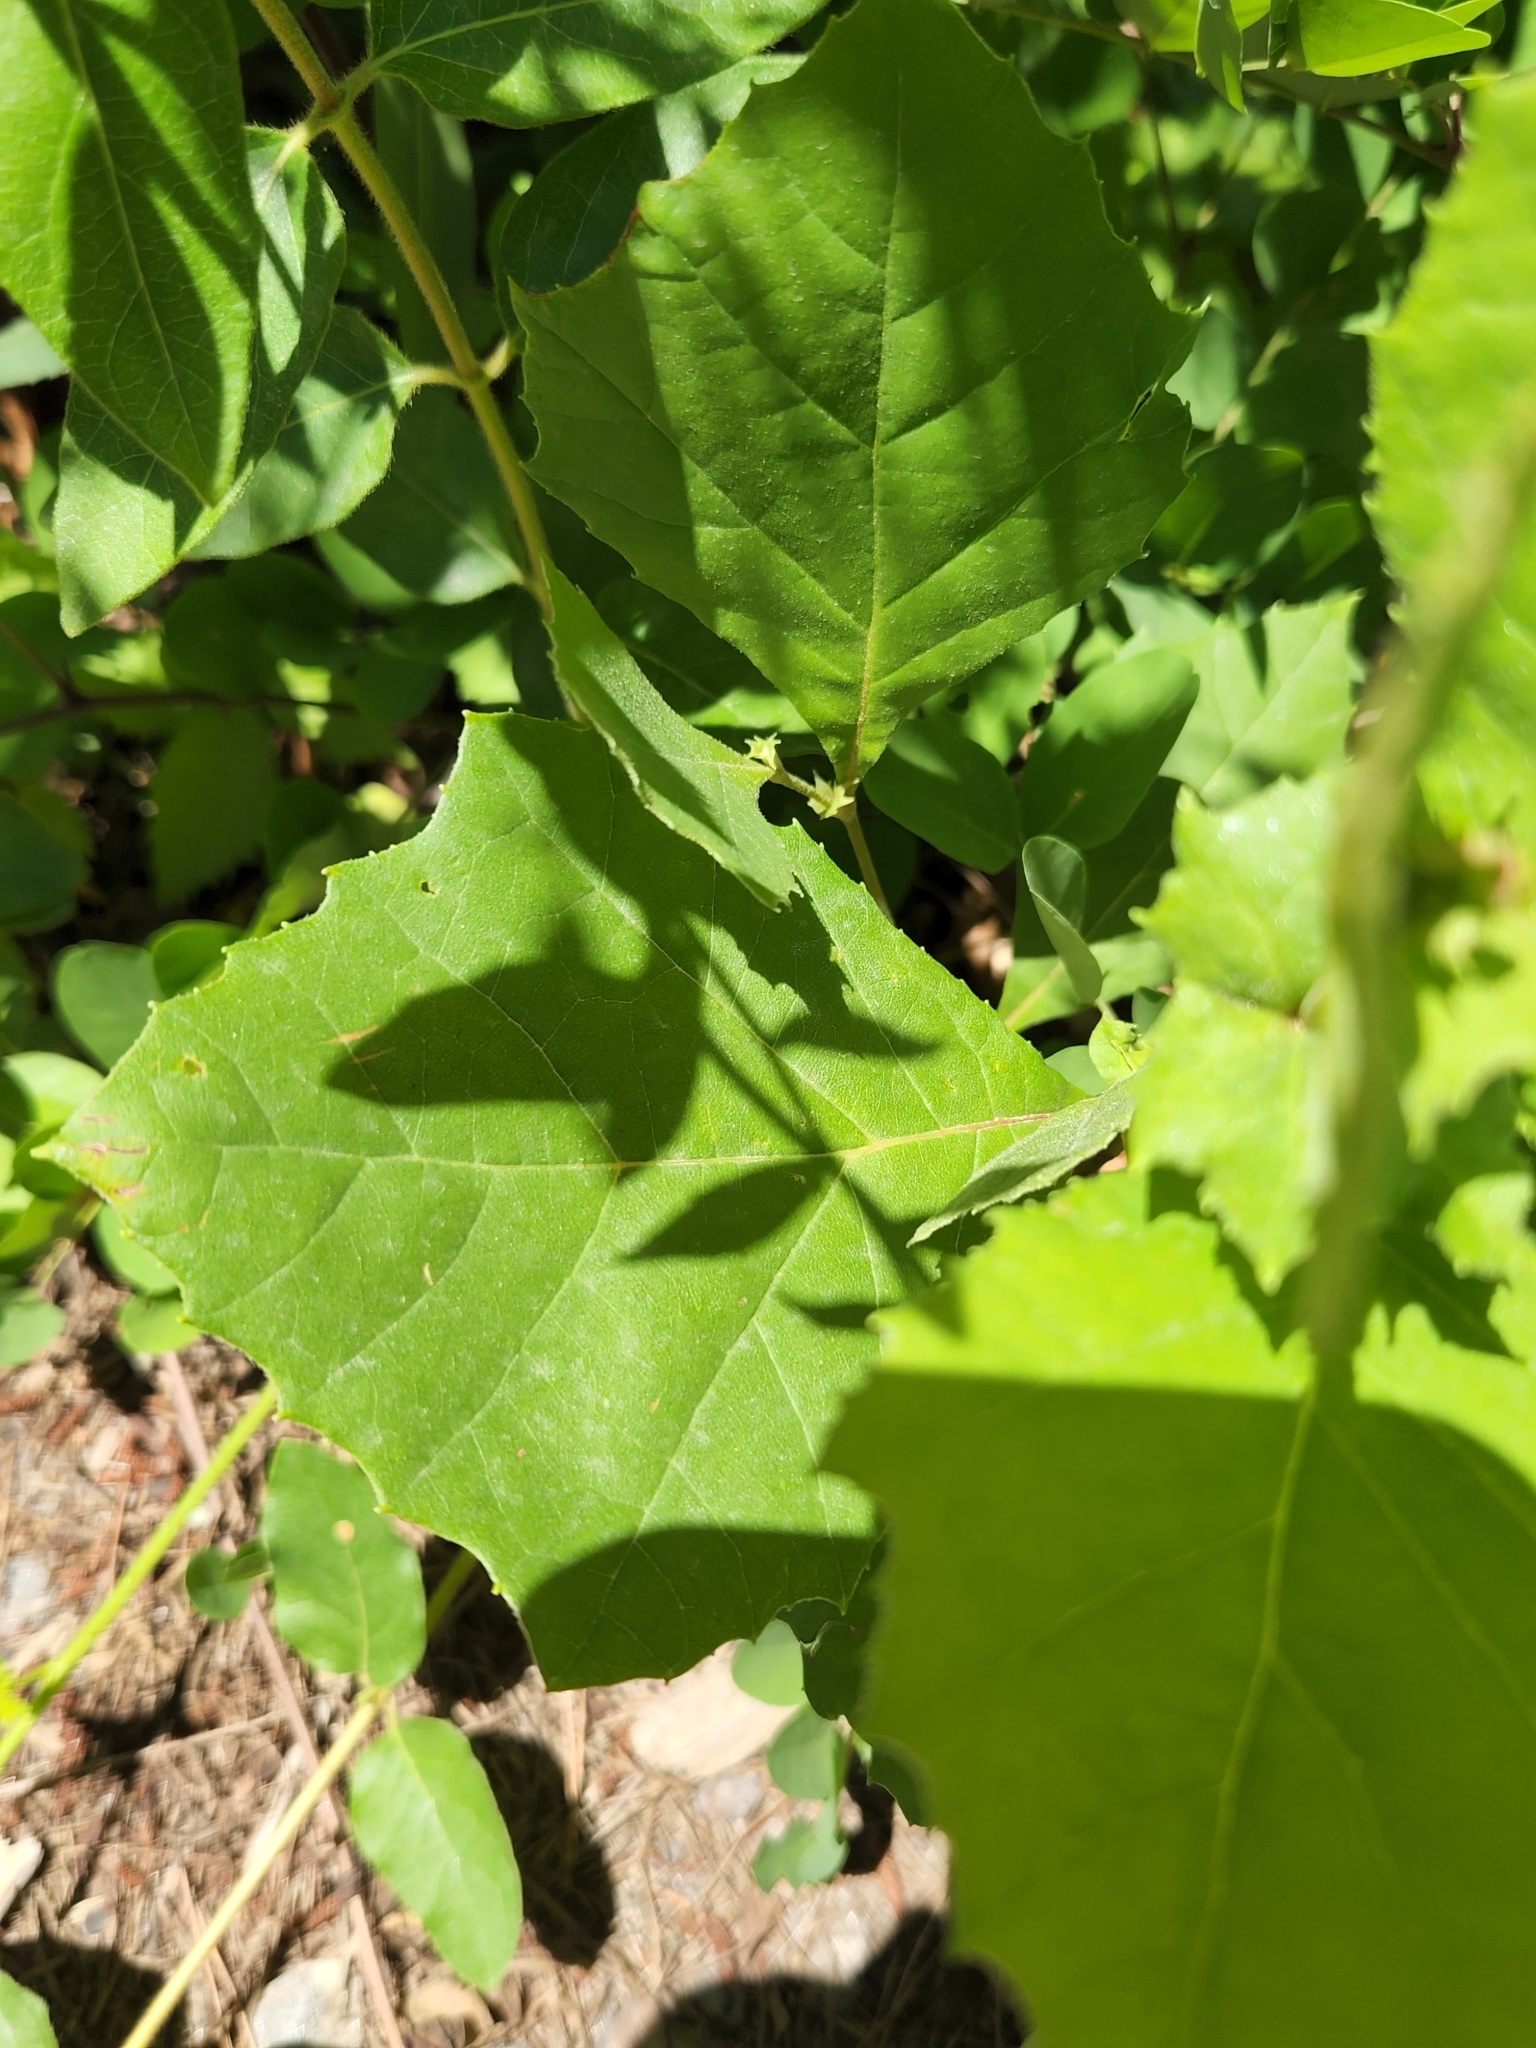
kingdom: Plantae
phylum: Tracheophyta
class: Magnoliopsida
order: Proteales
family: Platanaceae
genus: Platanus
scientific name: Platanus occidentalis
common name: American sycamore
